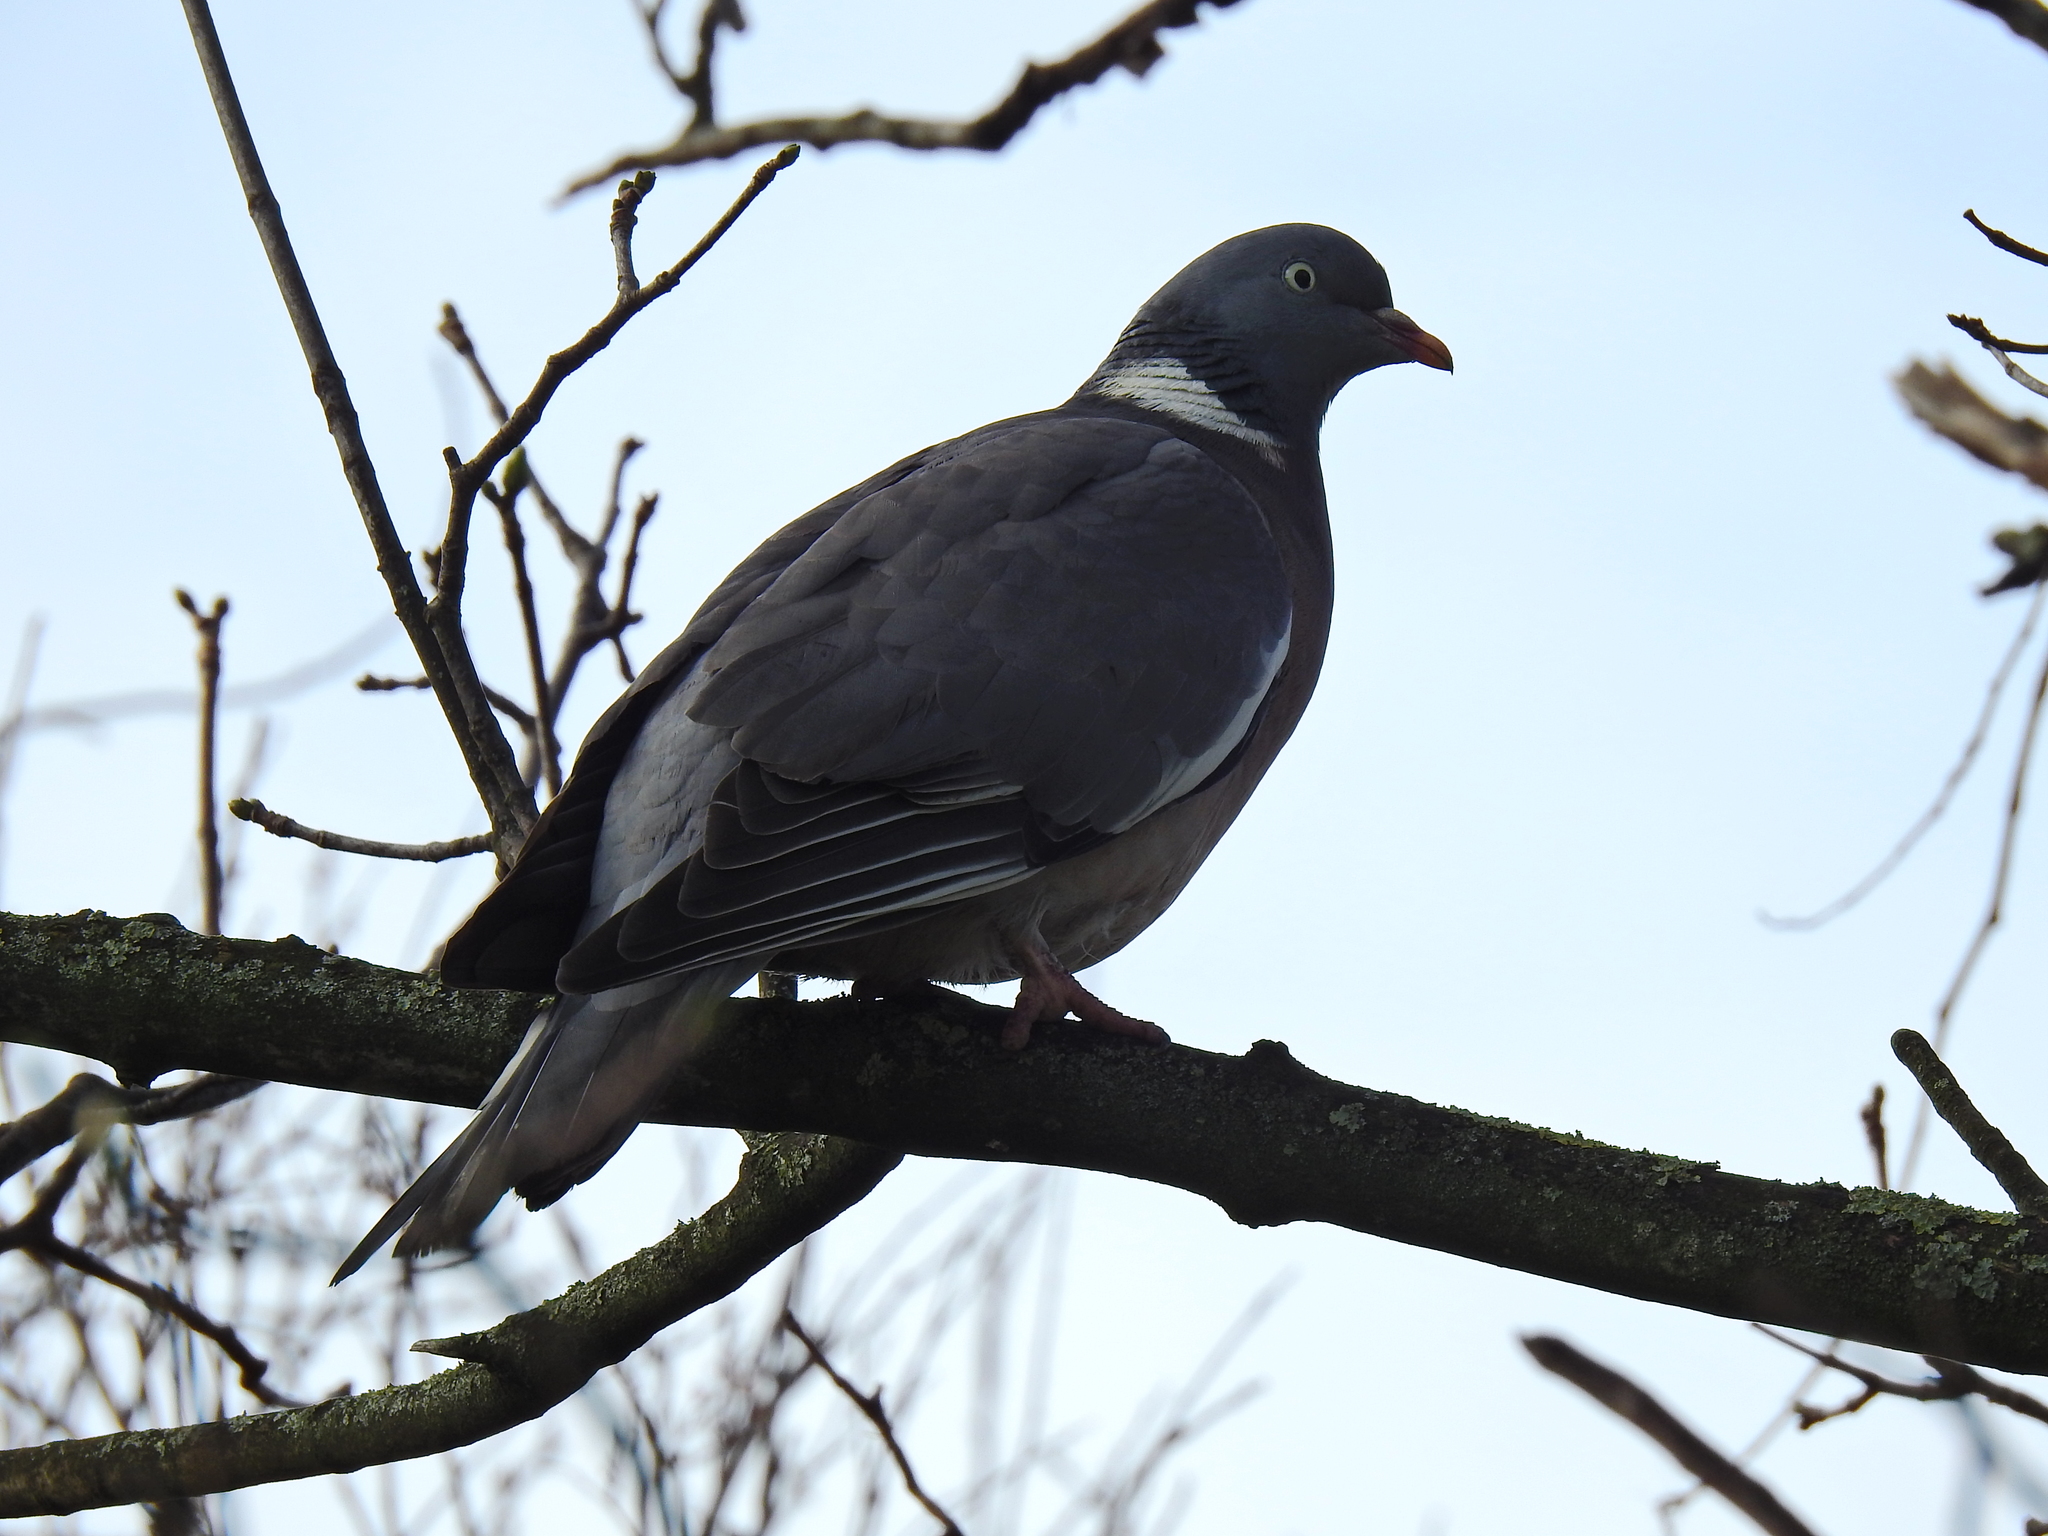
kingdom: Animalia
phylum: Chordata
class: Aves
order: Columbiformes
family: Columbidae
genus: Columba
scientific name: Columba palumbus
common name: Common wood pigeon
